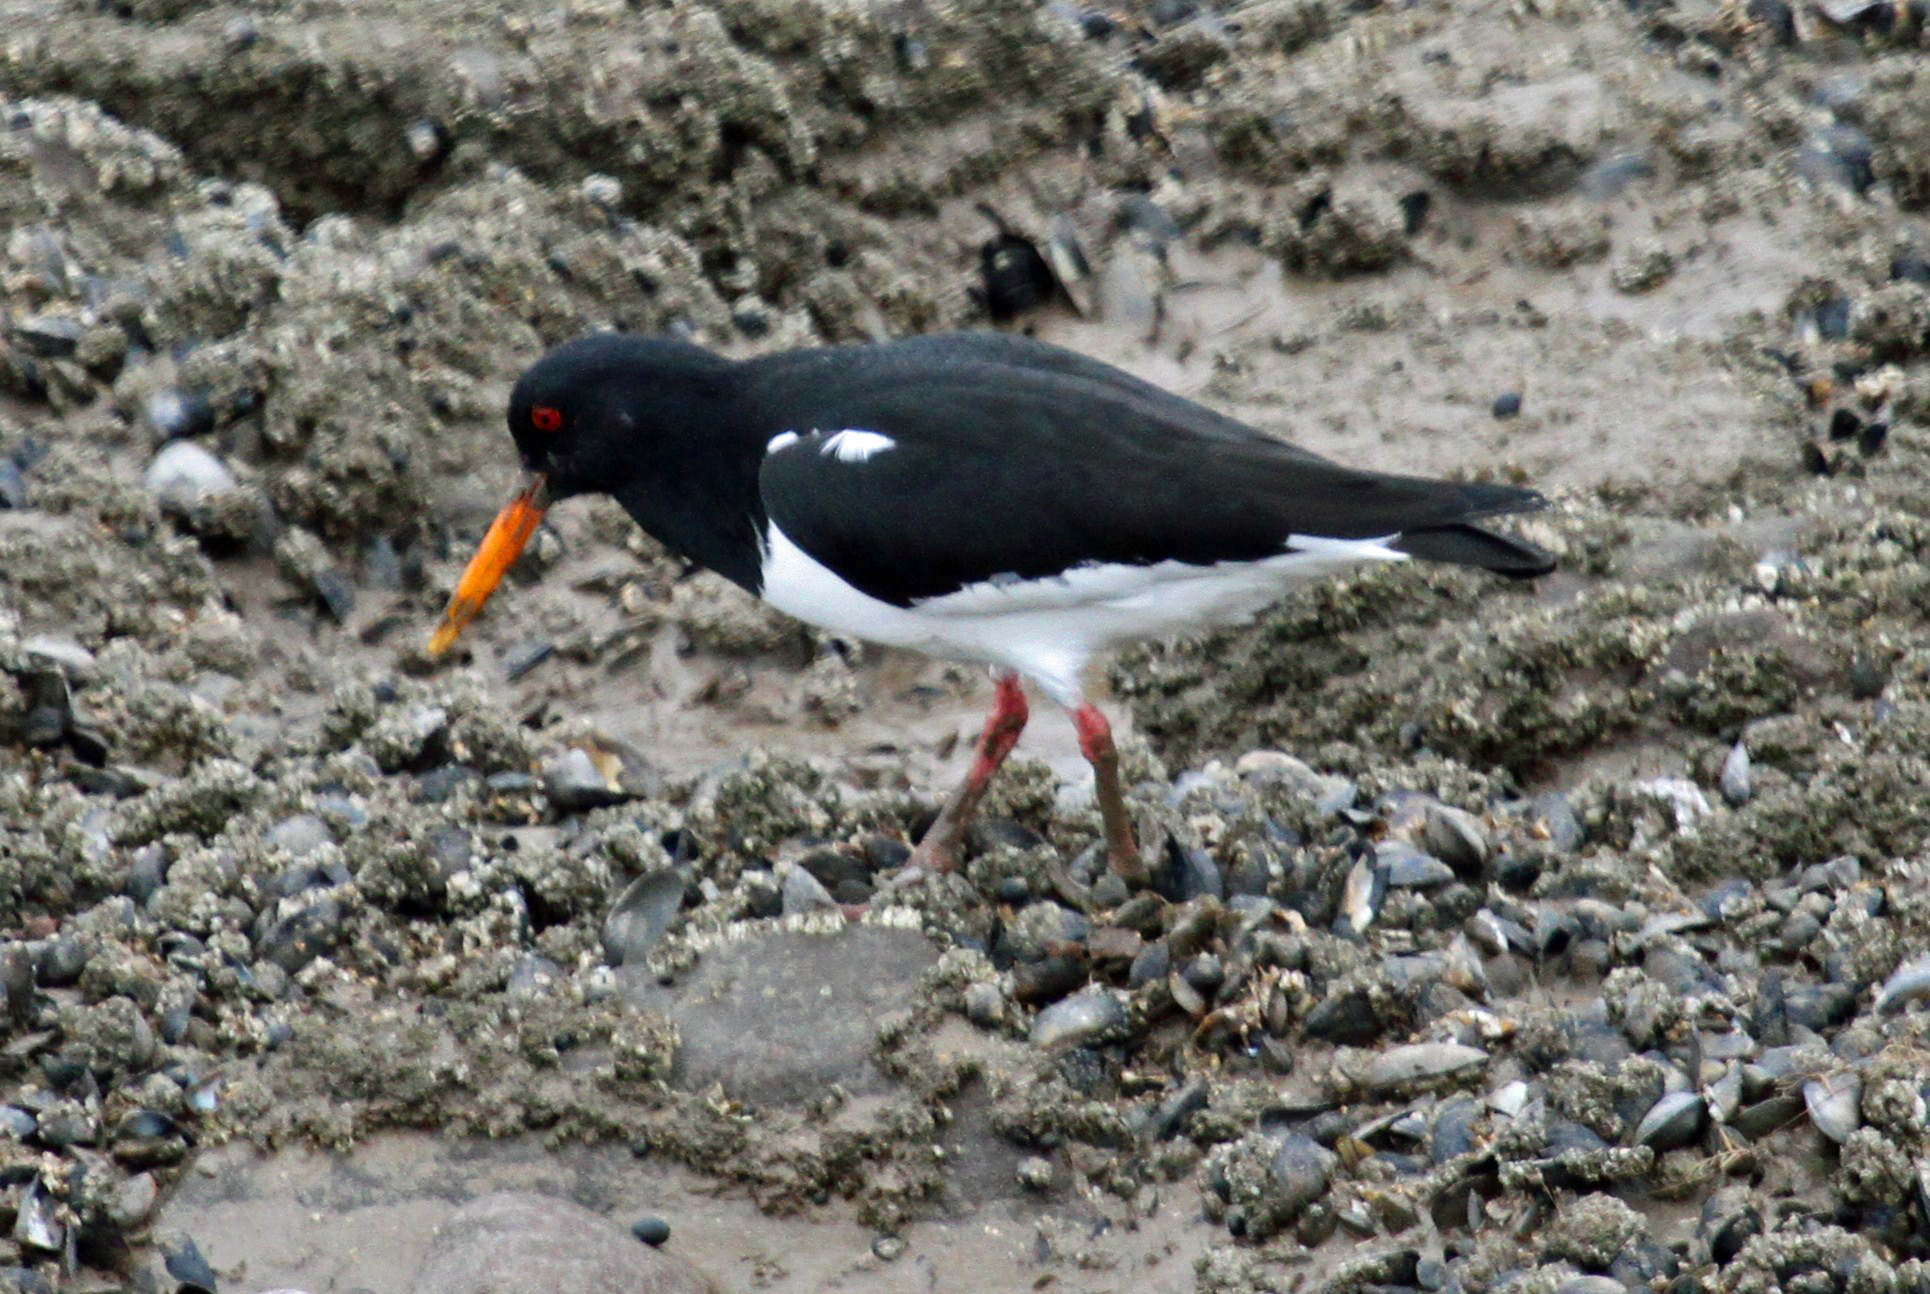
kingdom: Animalia
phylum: Chordata
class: Aves
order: Charadriiformes
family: Haematopodidae
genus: Haematopus
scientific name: Haematopus ostralegus
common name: Eurasian oystercatcher
